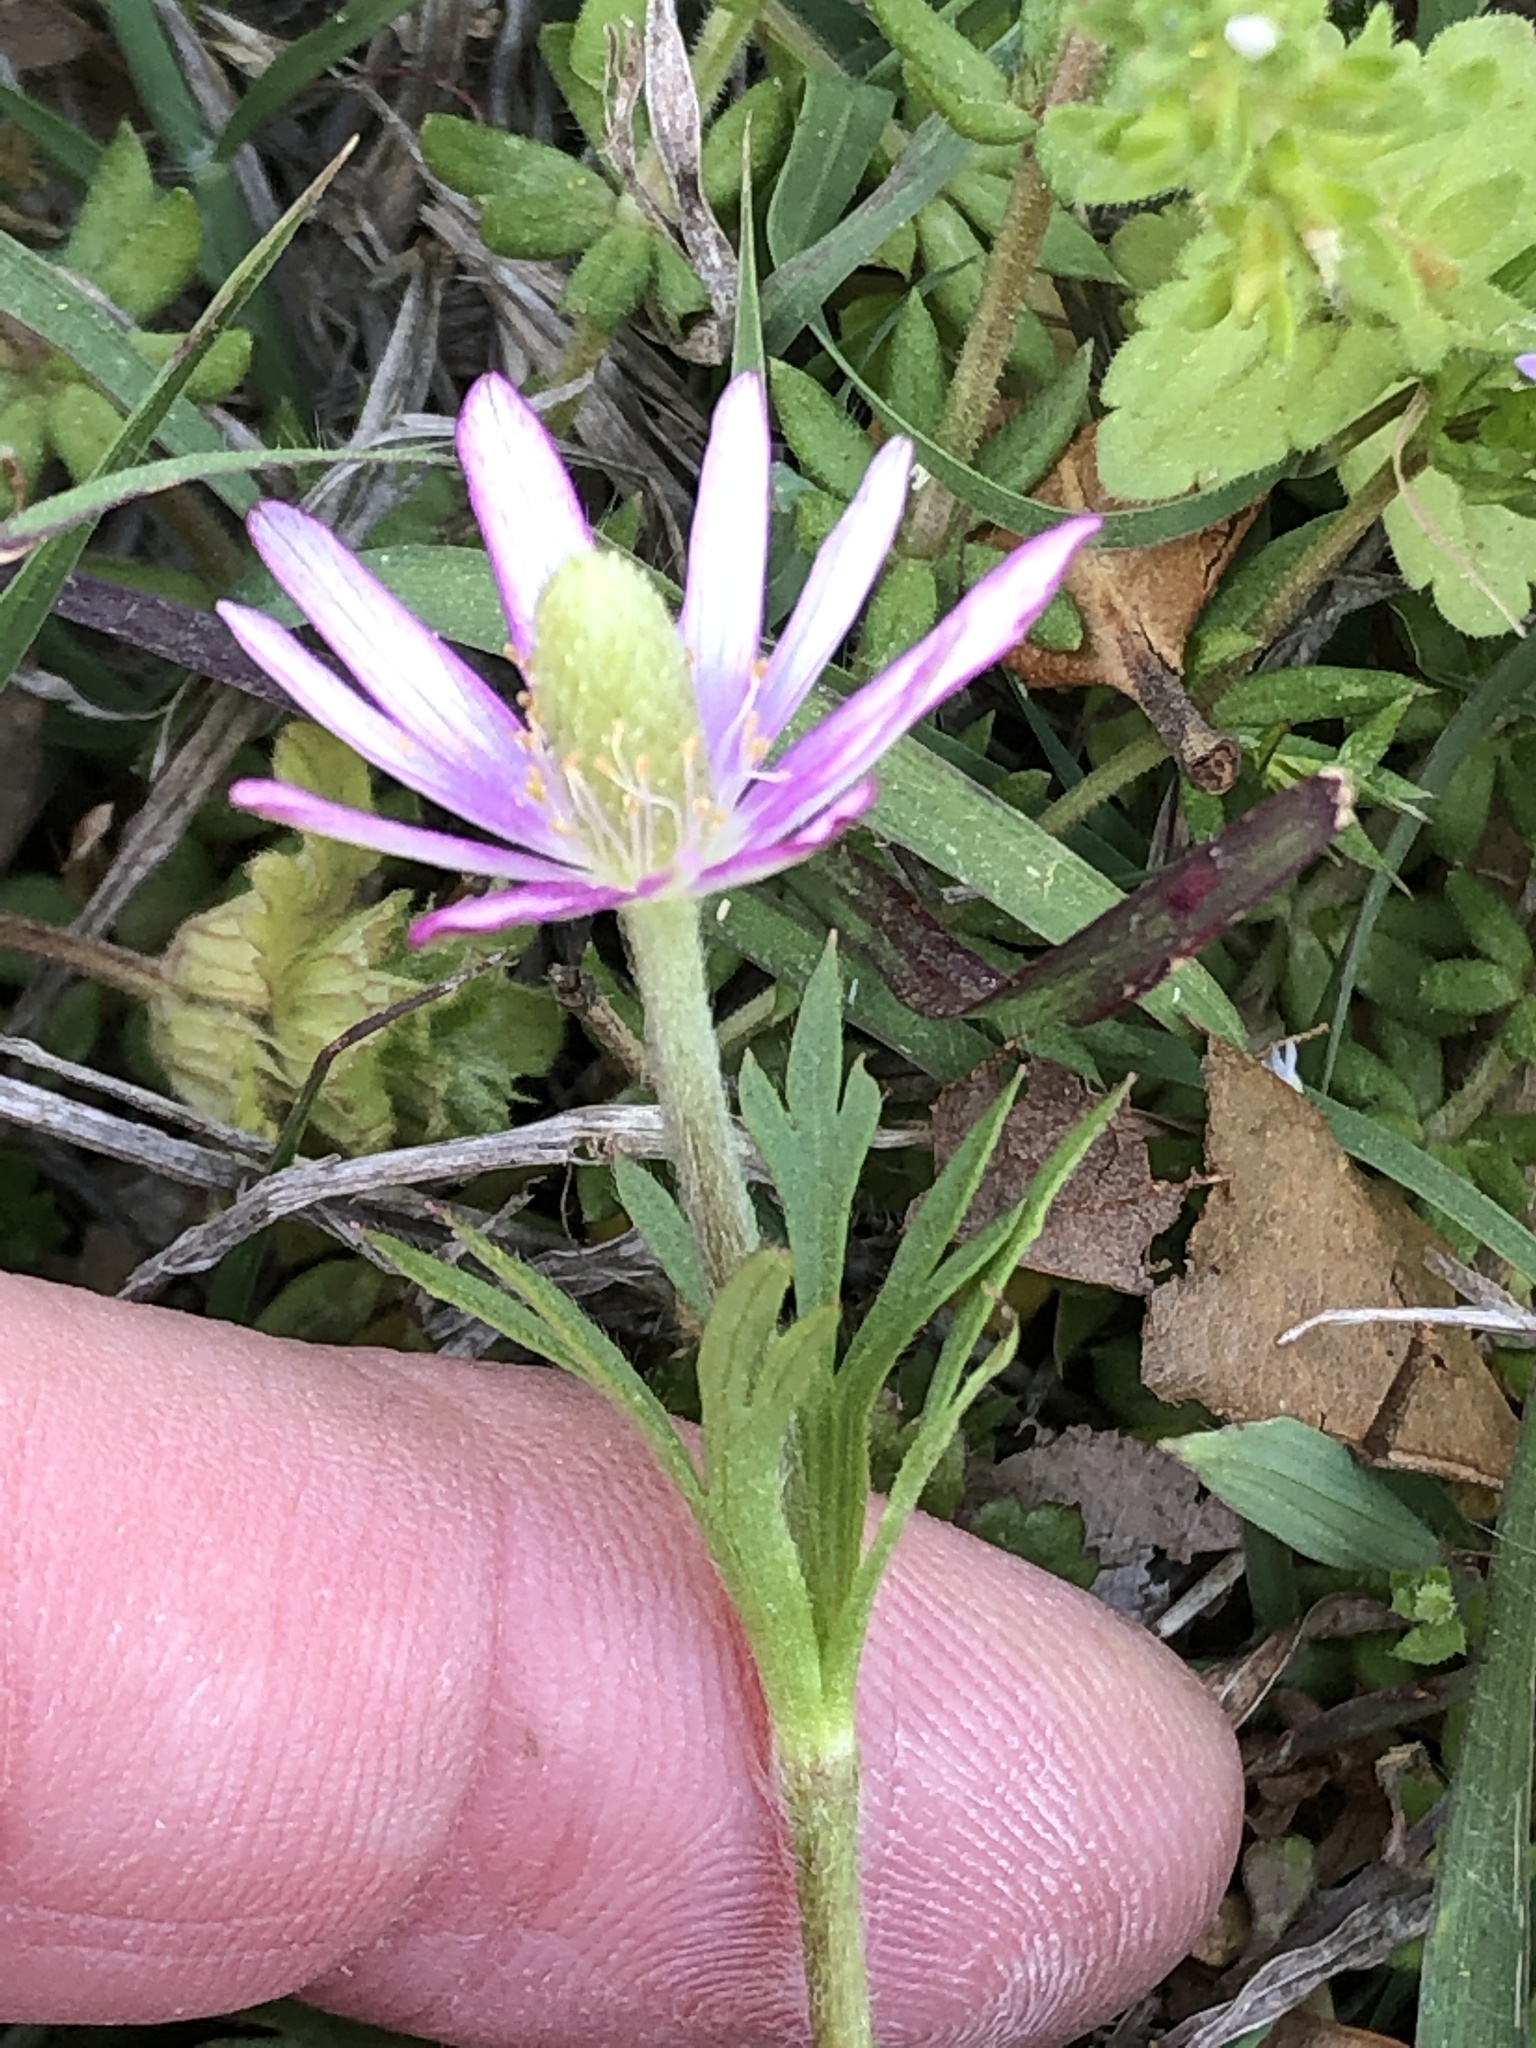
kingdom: Plantae
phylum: Tracheophyta
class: Magnoliopsida
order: Ranunculales
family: Ranunculaceae
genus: Anemone
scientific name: Anemone berlandieri
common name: Ten-petal anemone
